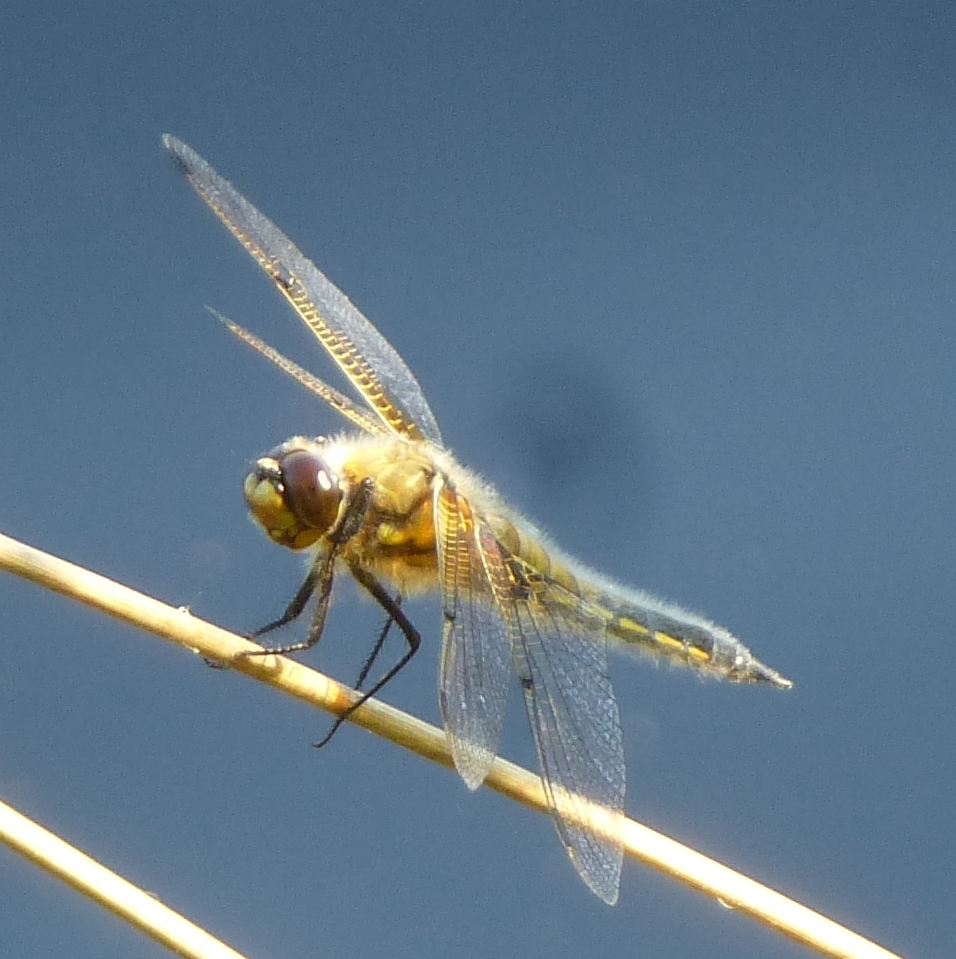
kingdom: Animalia
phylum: Arthropoda
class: Insecta
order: Odonata
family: Libellulidae
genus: Libellula
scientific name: Libellula quadrimaculata
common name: Four-spotted chaser
